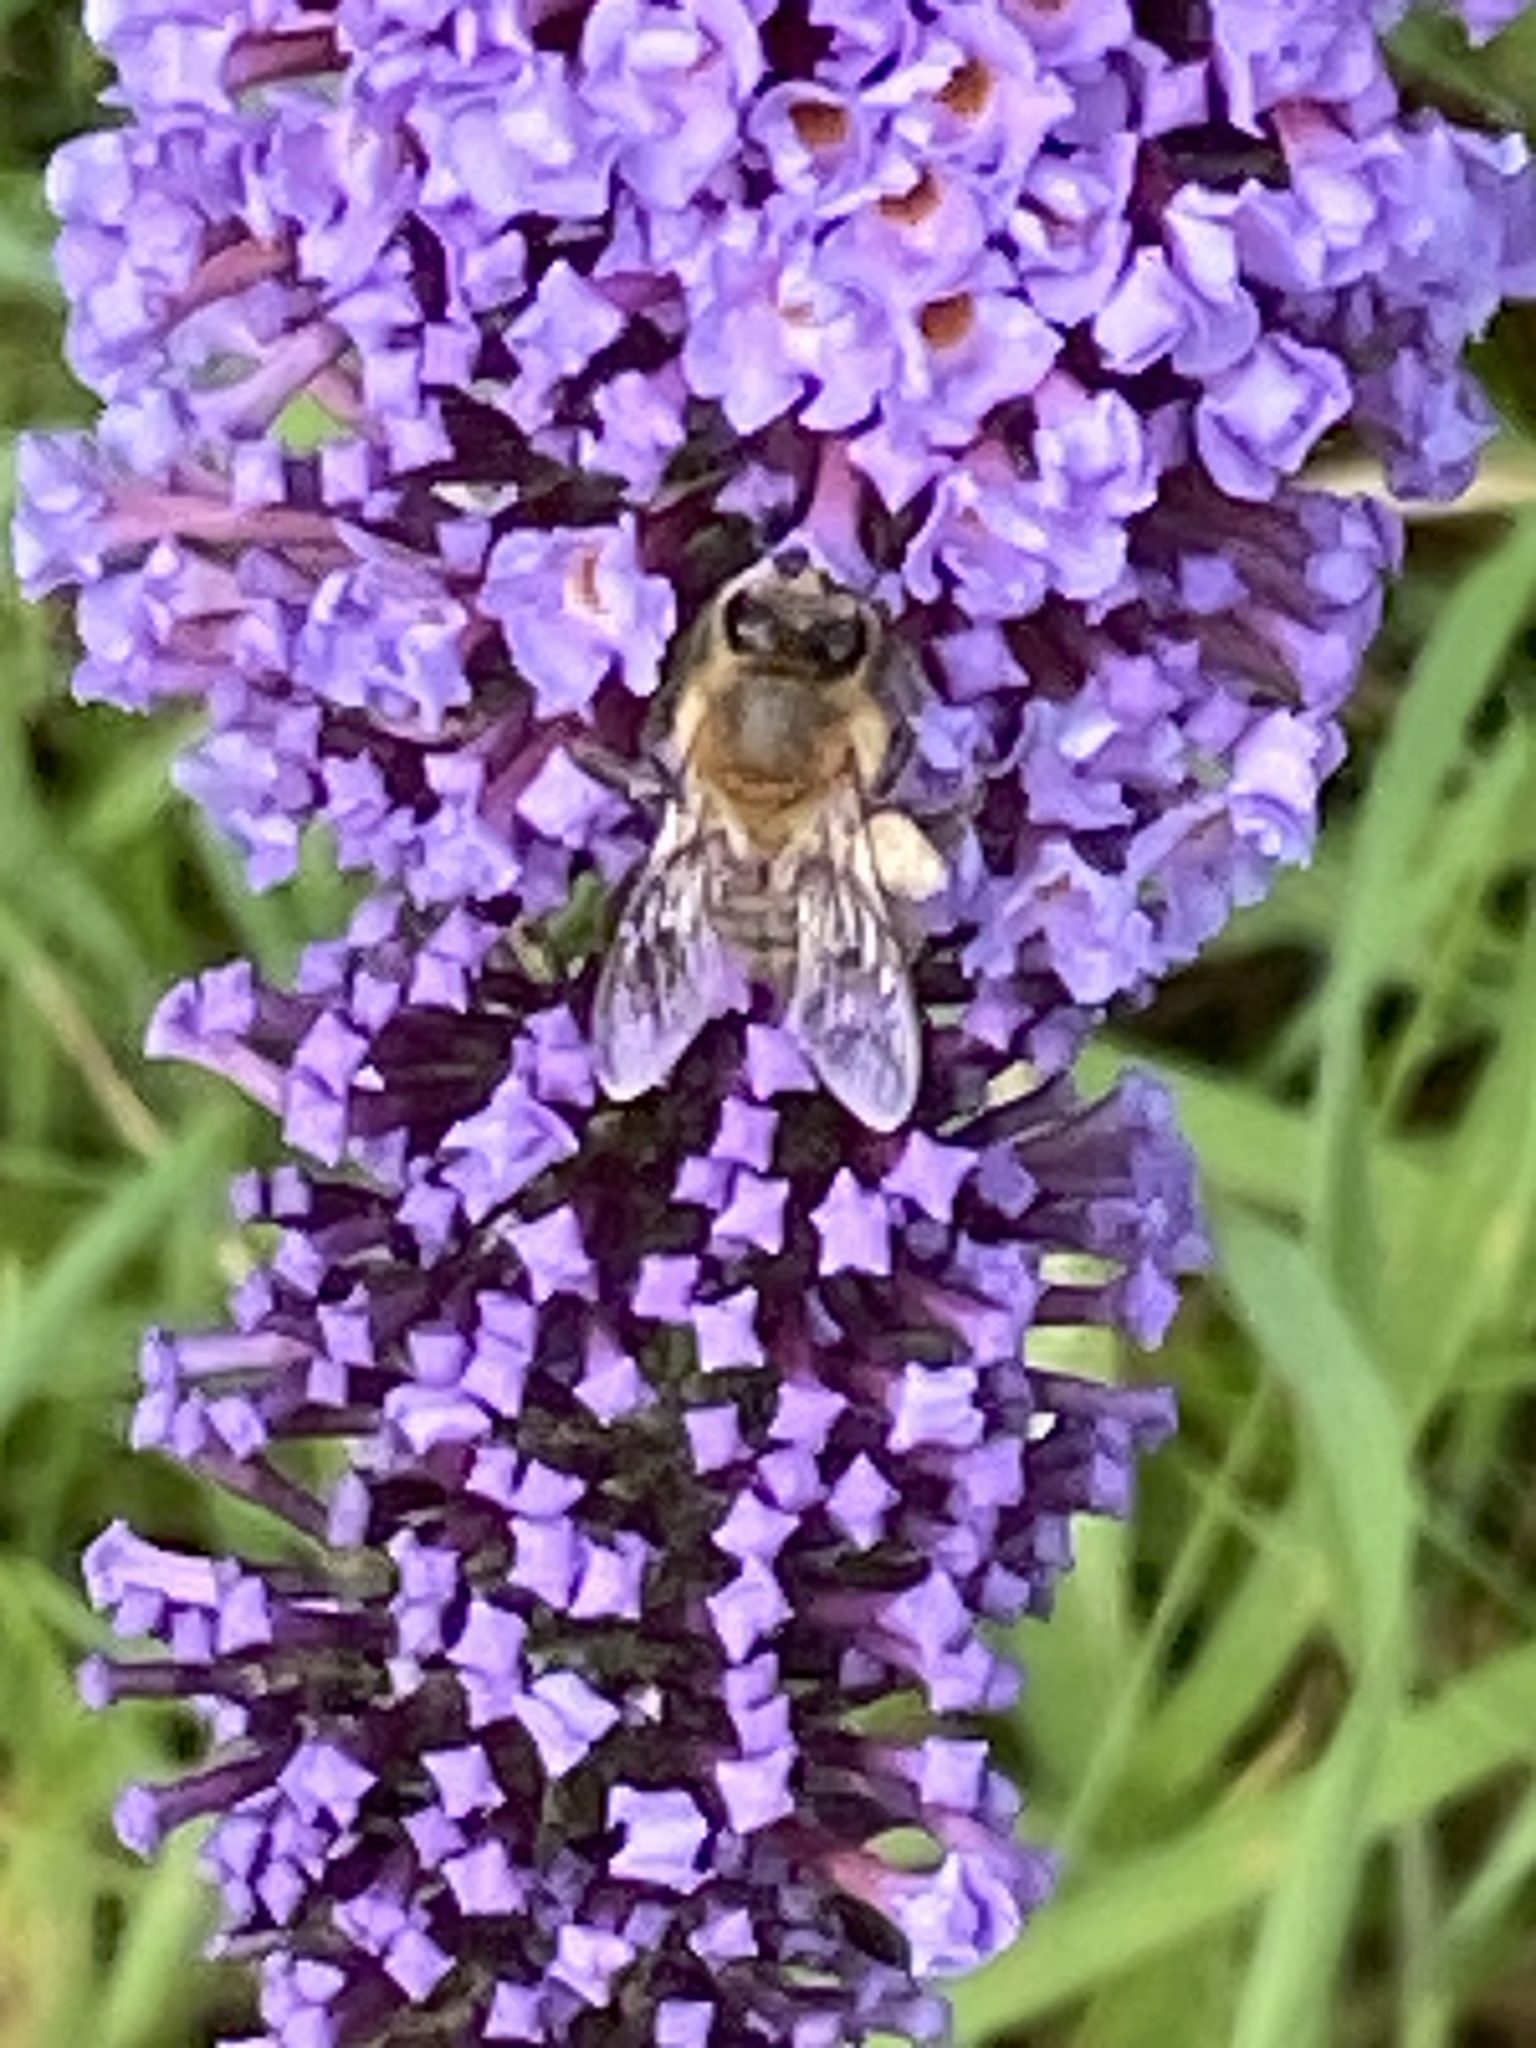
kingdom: Animalia
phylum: Arthropoda
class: Insecta
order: Hymenoptera
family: Apidae
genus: Apis
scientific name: Apis mellifera
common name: Honey bee
